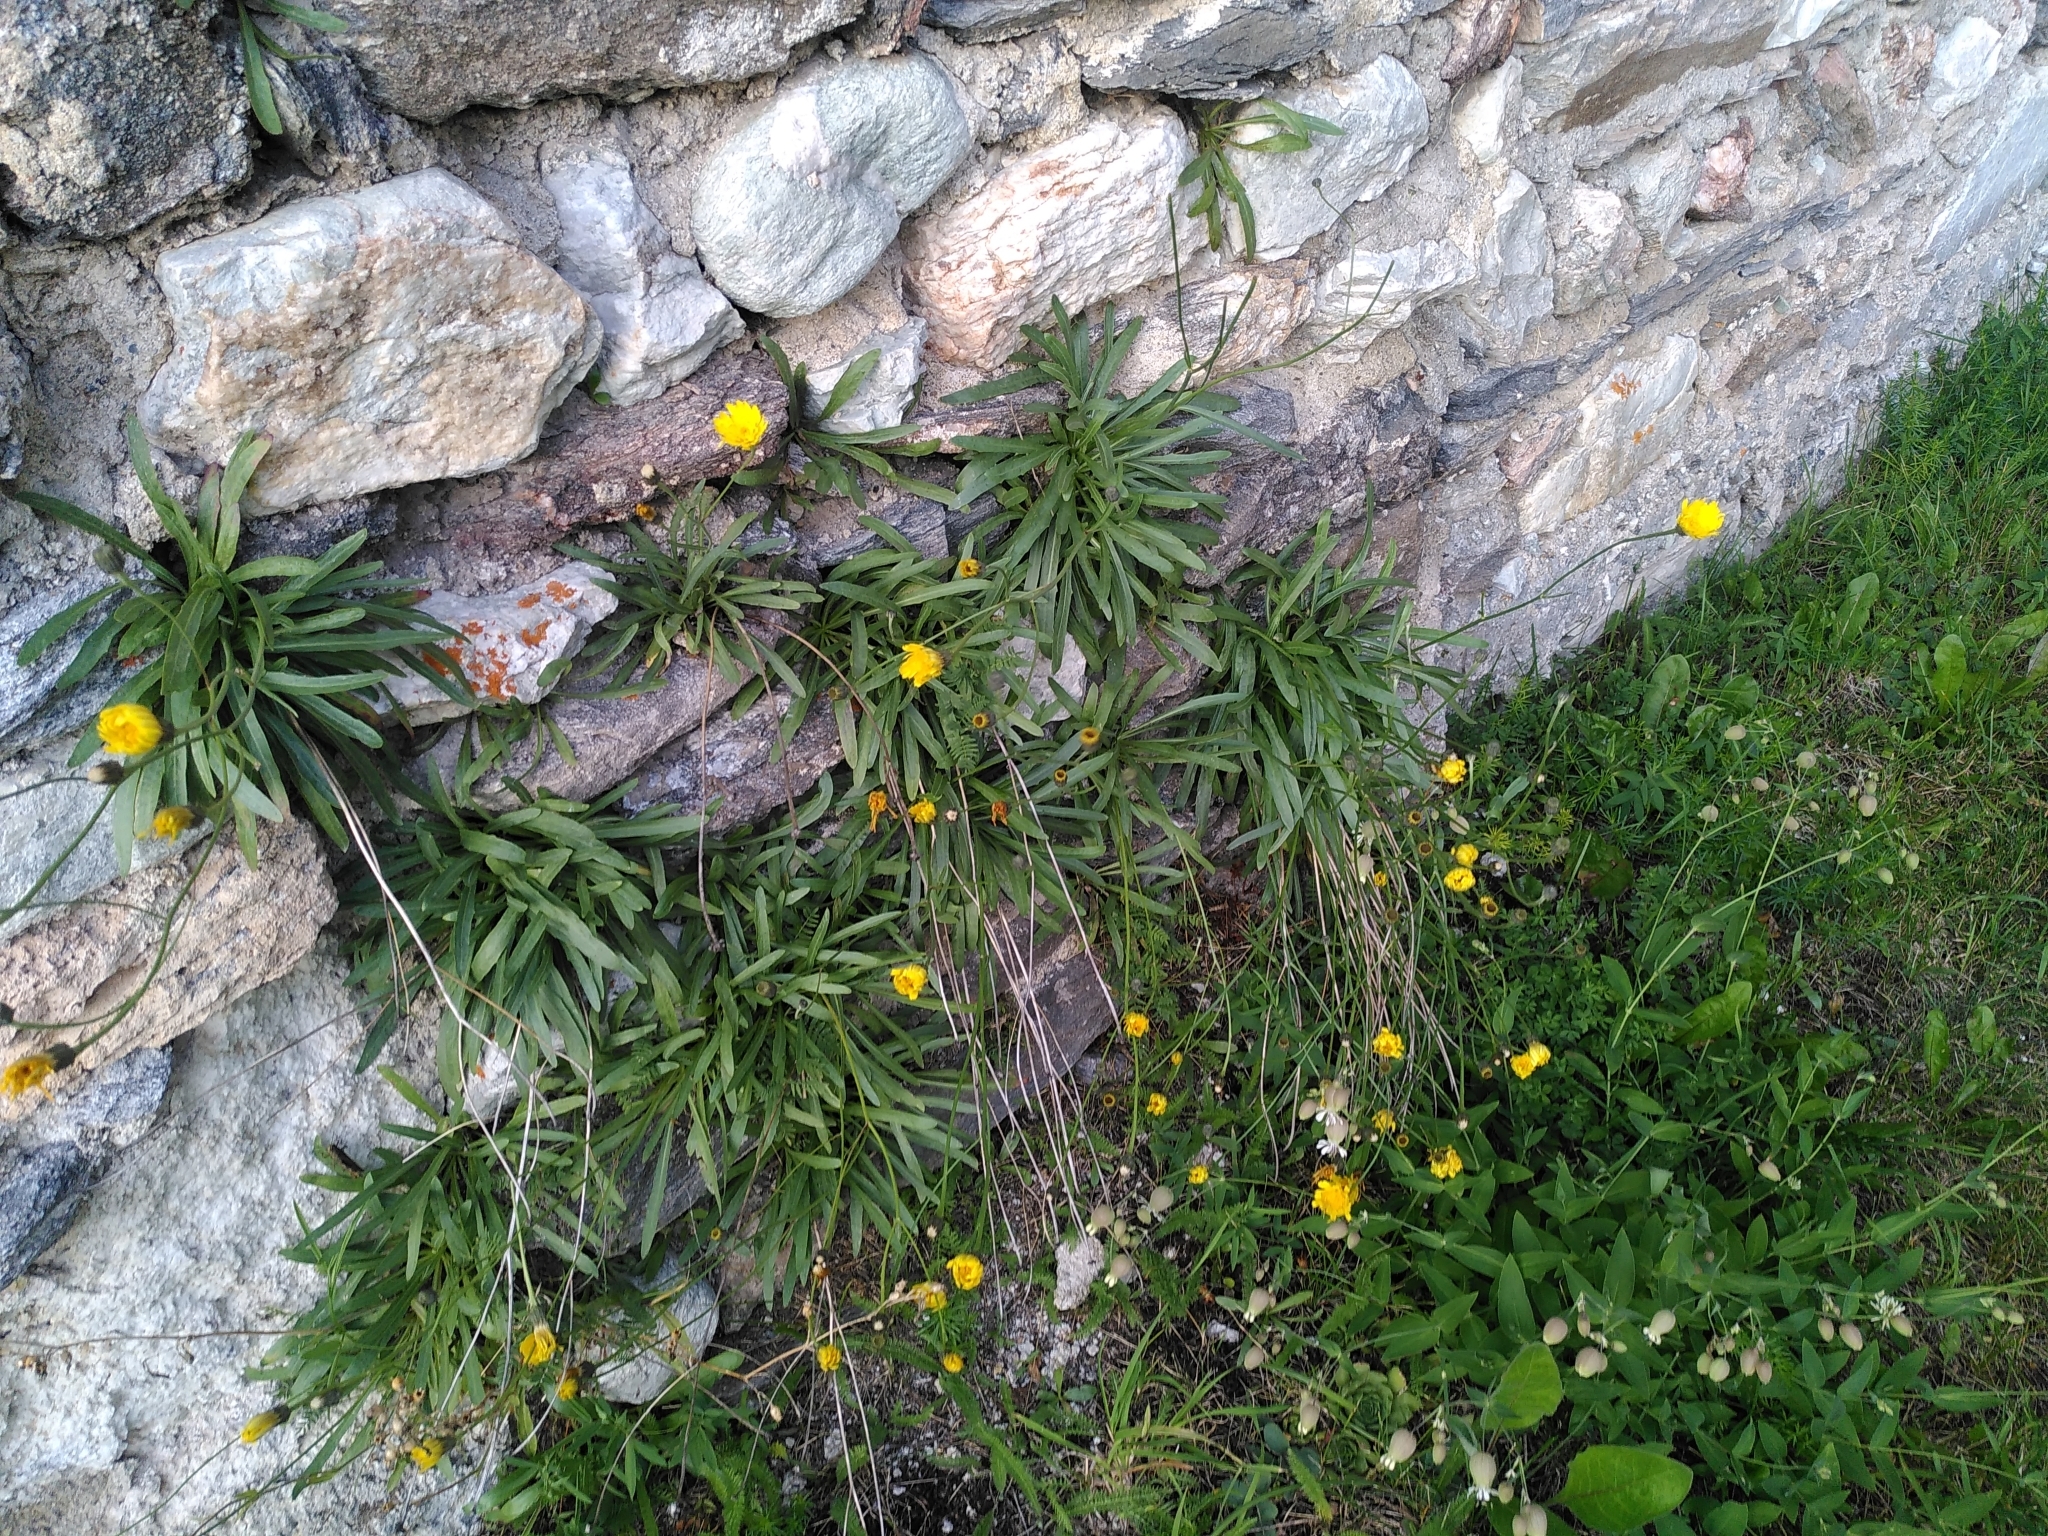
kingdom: Plantae
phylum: Tracheophyta
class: Magnoliopsida
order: Asterales
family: Asteraceae
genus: Tolpis
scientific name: Tolpis staticifolia
